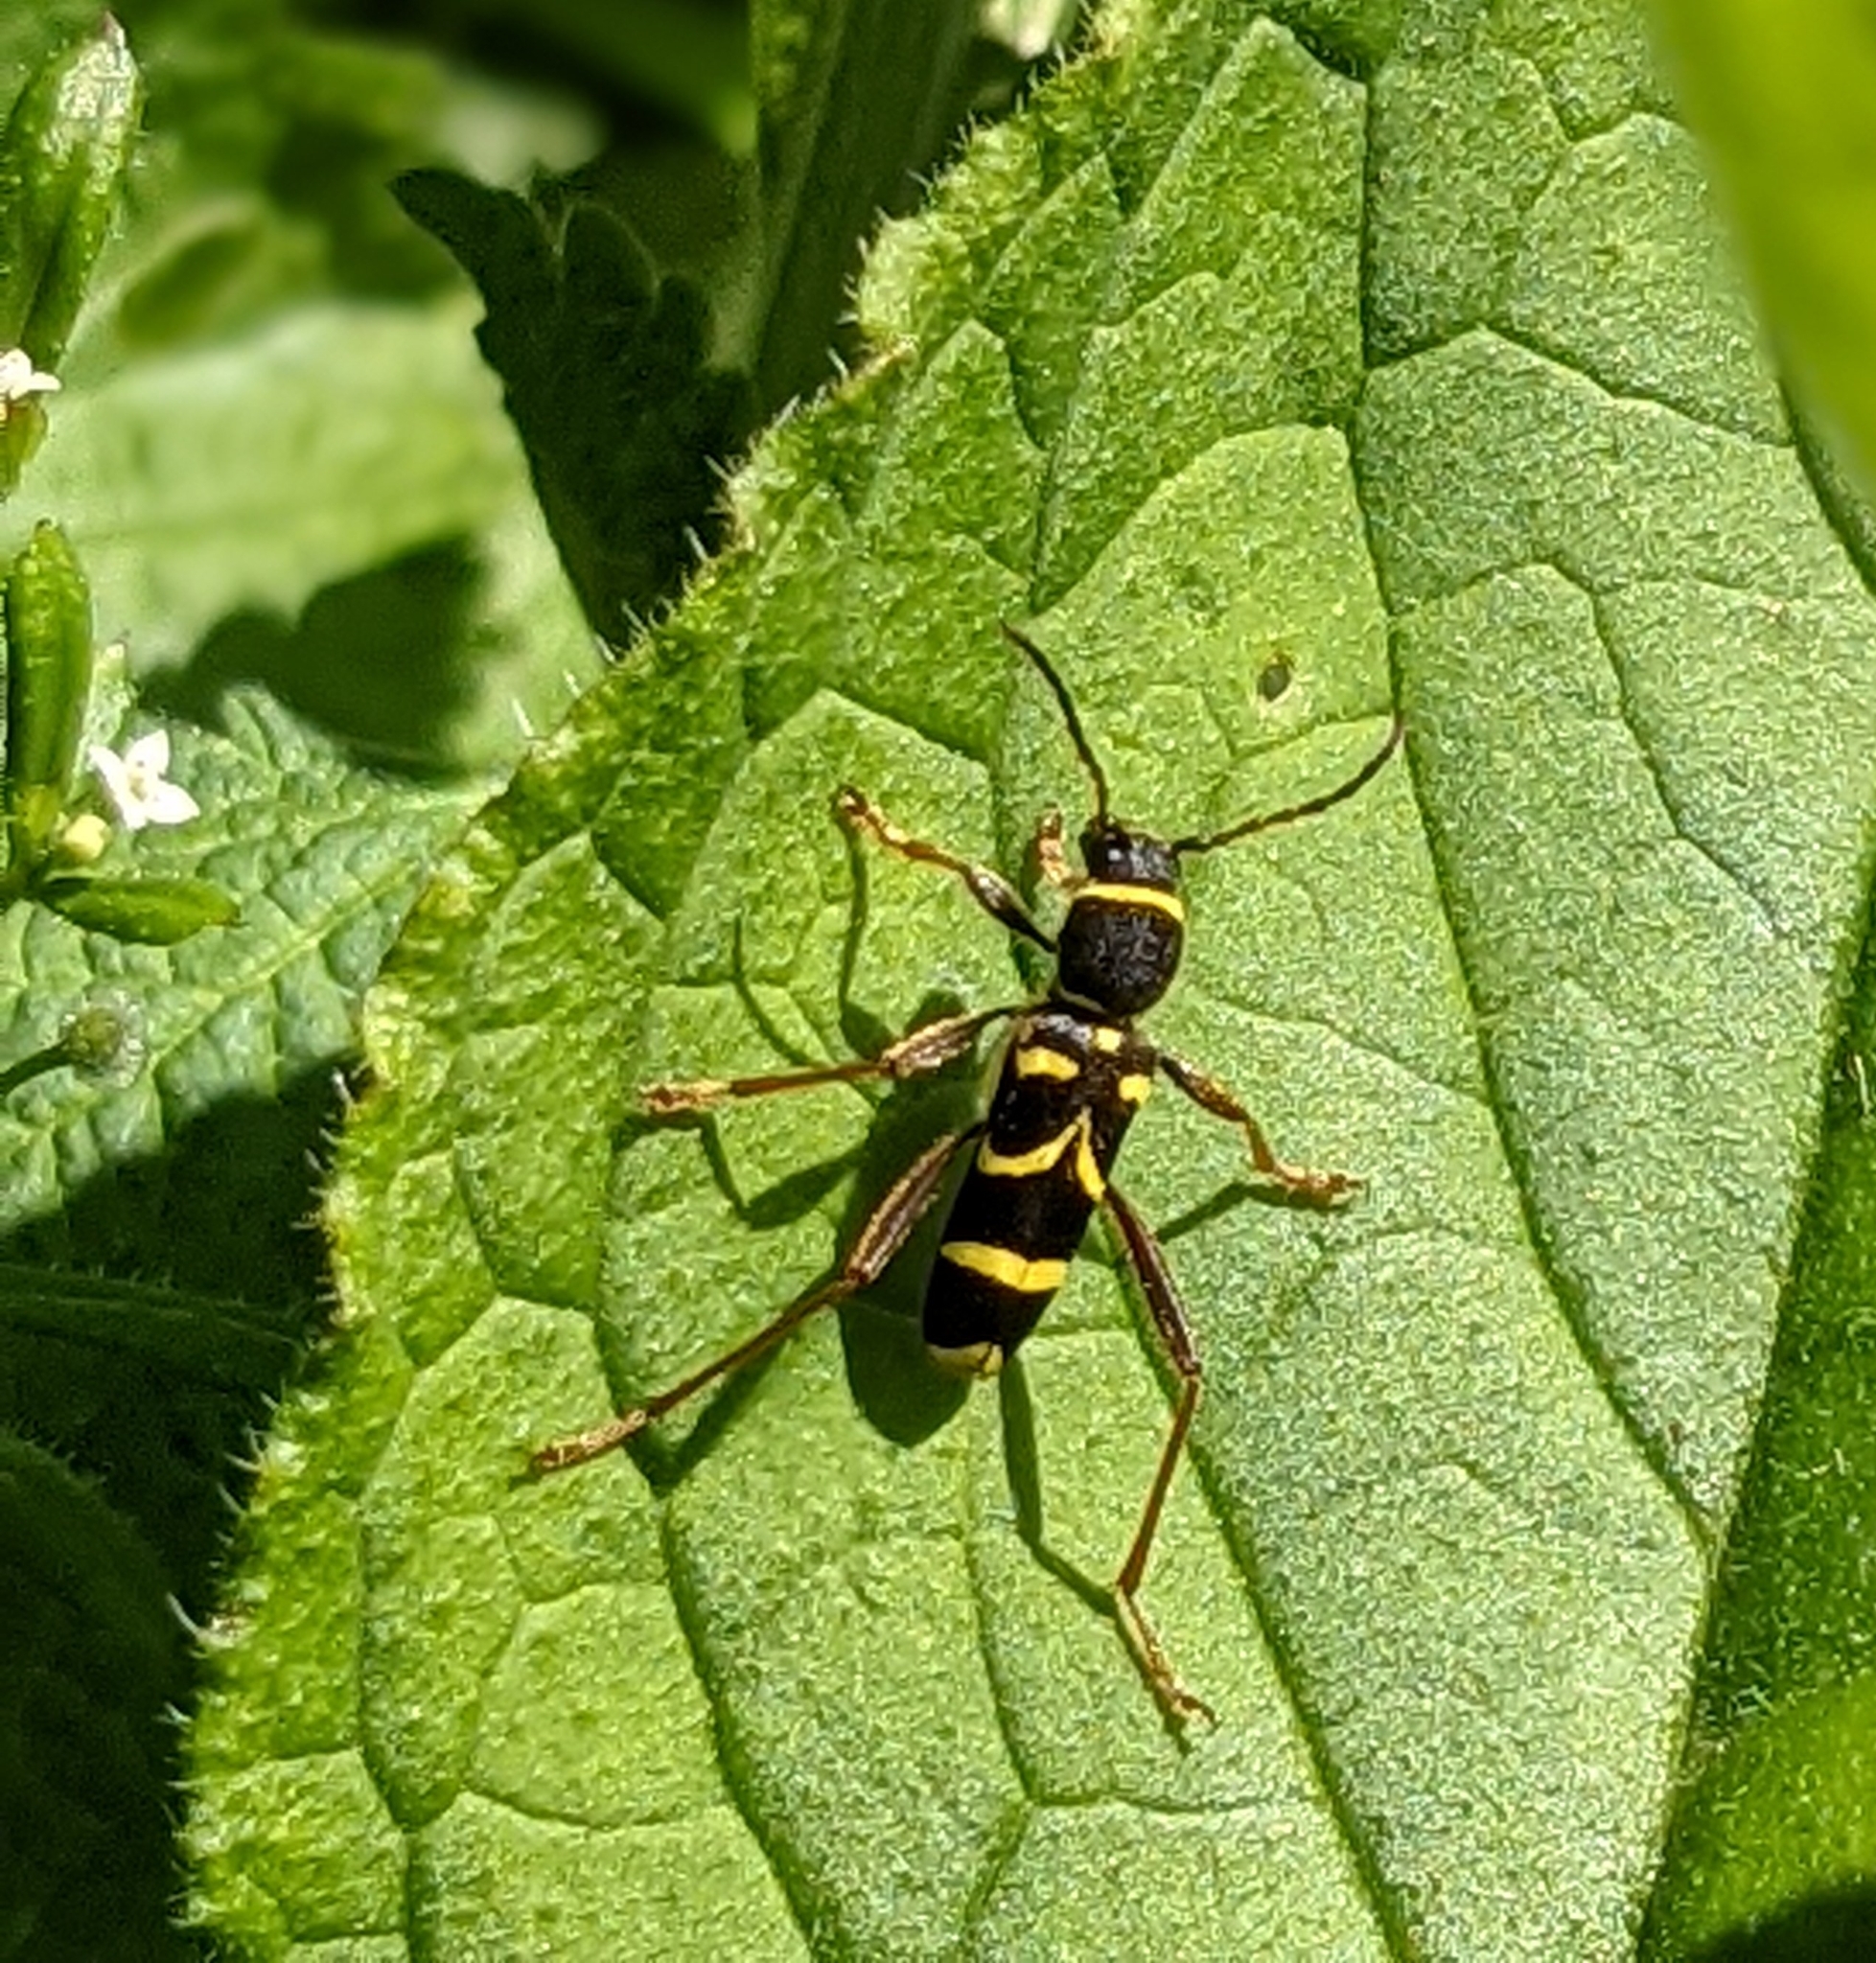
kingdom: Animalia
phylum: Arthropoda
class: Insecta
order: Coleoptera
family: Cerambycidae
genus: Clytus
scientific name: Clytus arietis
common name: Wasp beetle
